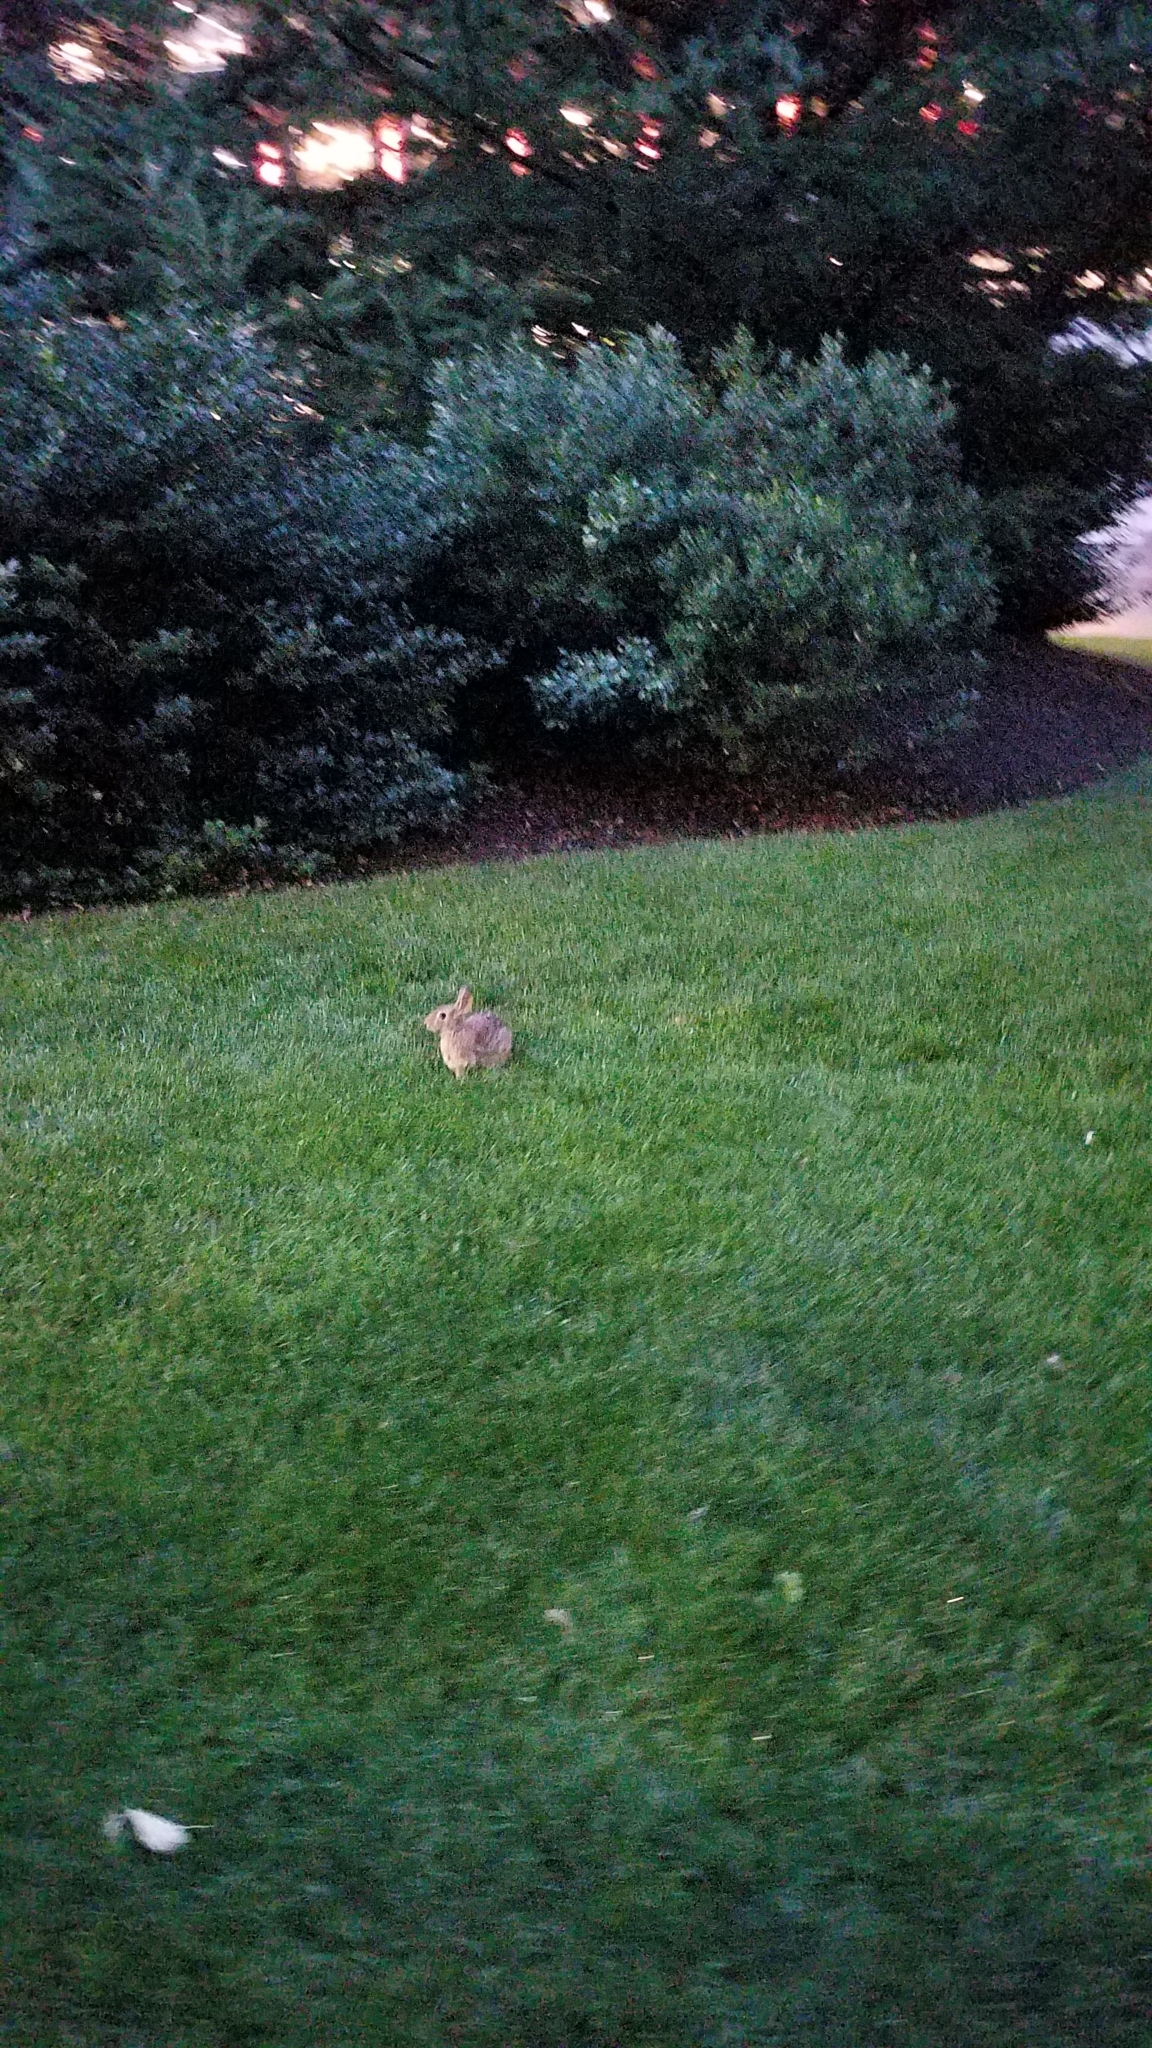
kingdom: Animalia
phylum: Chordata
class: Mammalia
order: Lagomorpha
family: Leporidae
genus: Sylvilagus
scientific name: Sylvilagus floridanus
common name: Eastern cottontail
